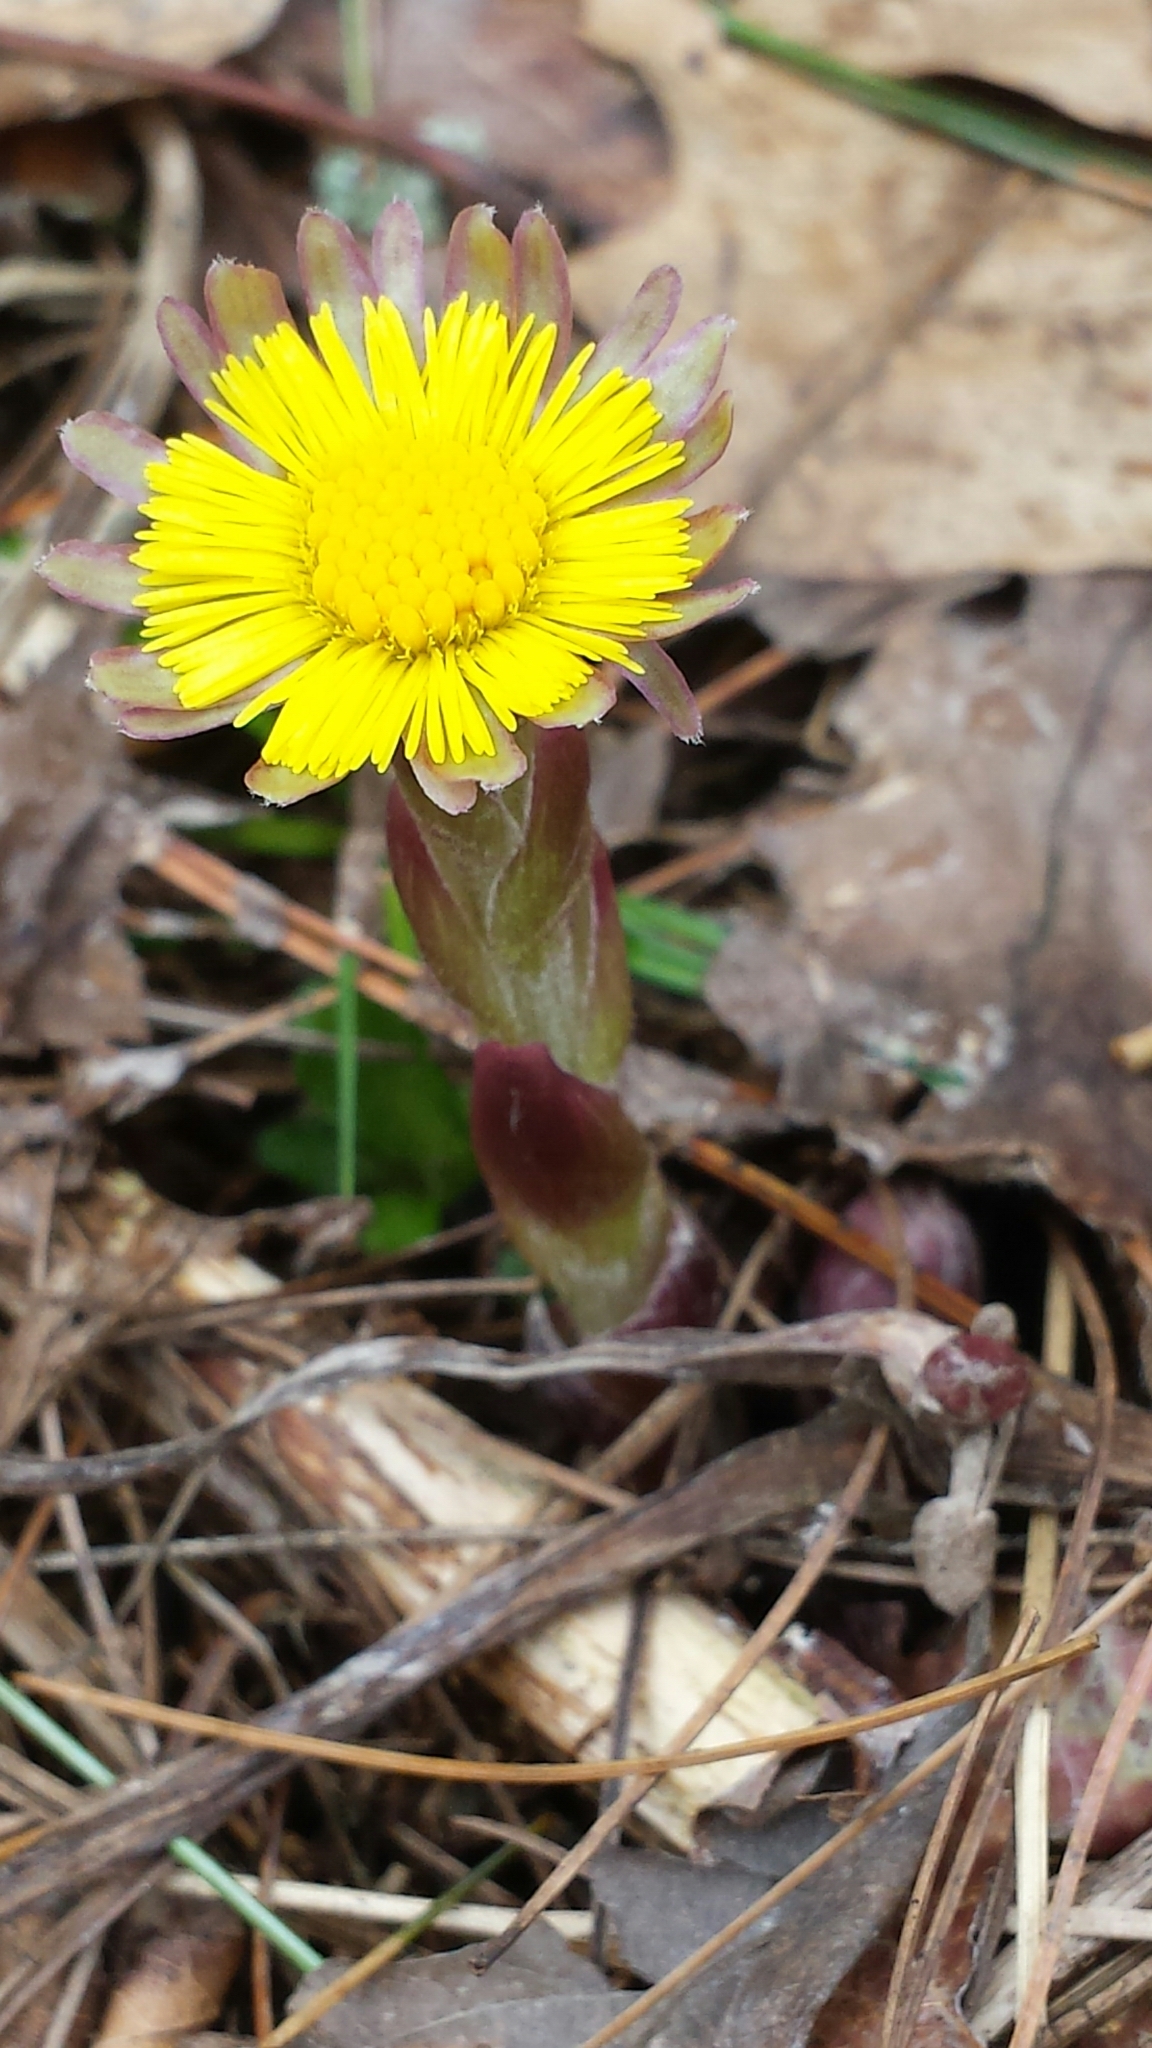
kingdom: Plantae
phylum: Tracheophyta
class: Magnoliopsida
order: Asterales
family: Asteraceae
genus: Tussilago
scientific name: Tussilago farfara
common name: Coltsfoot
